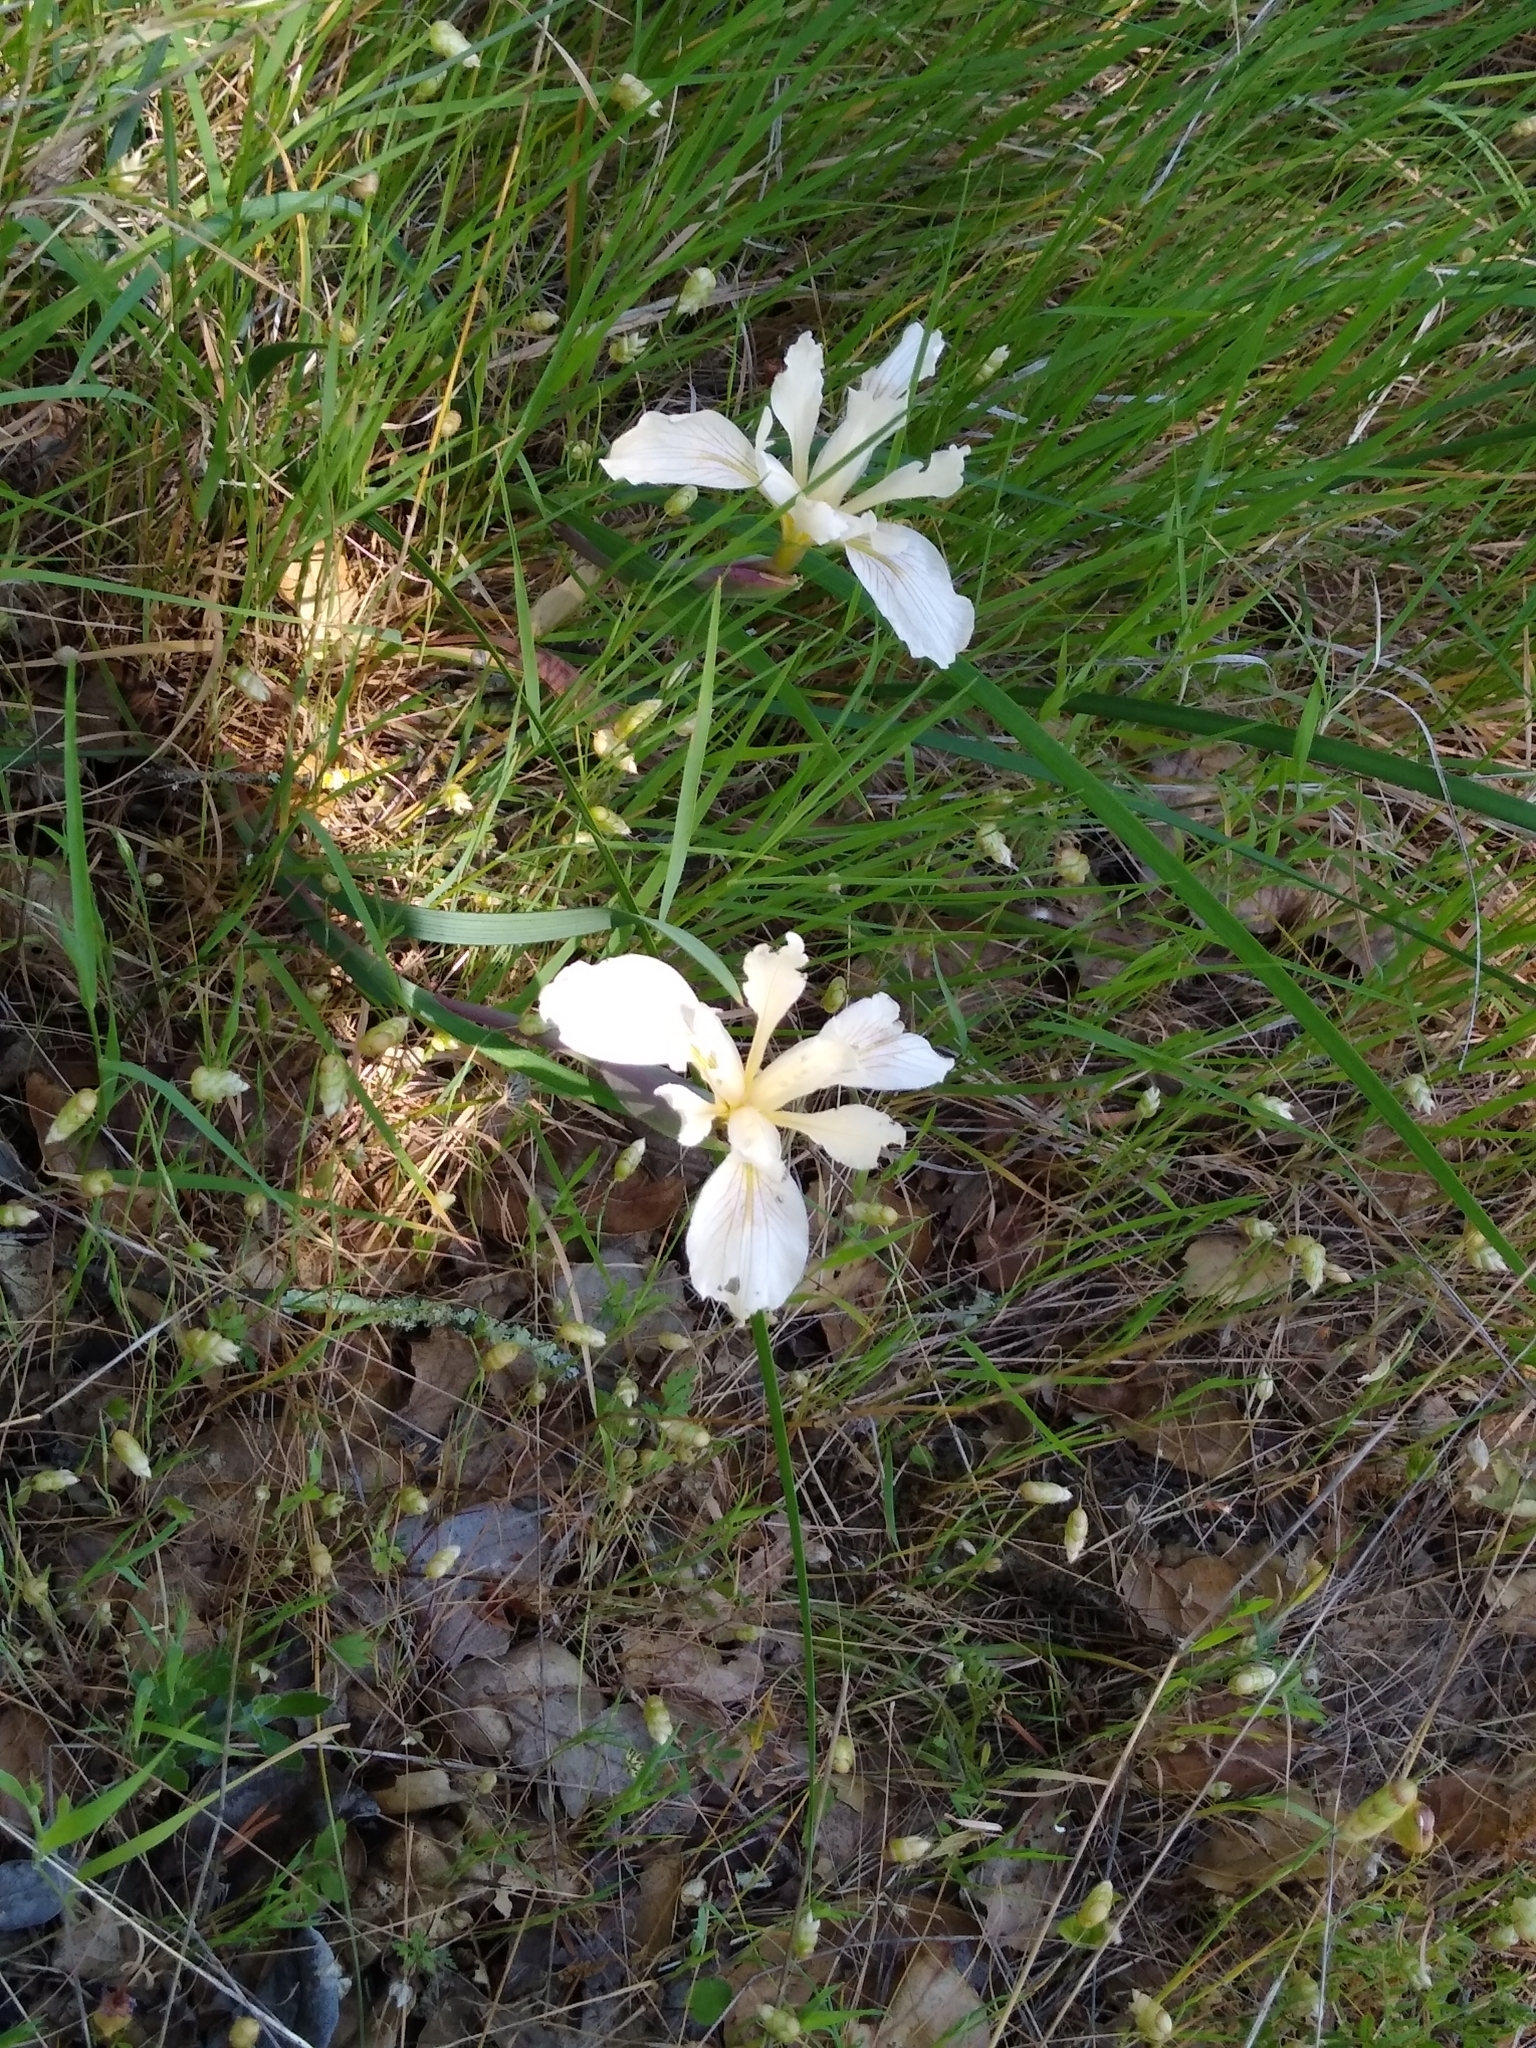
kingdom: Plantae
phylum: Tracheophyta
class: Liliopsida
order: Asparagales
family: Iridaceae
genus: Iris
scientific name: Iris fernaldii
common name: Fernald's iris
